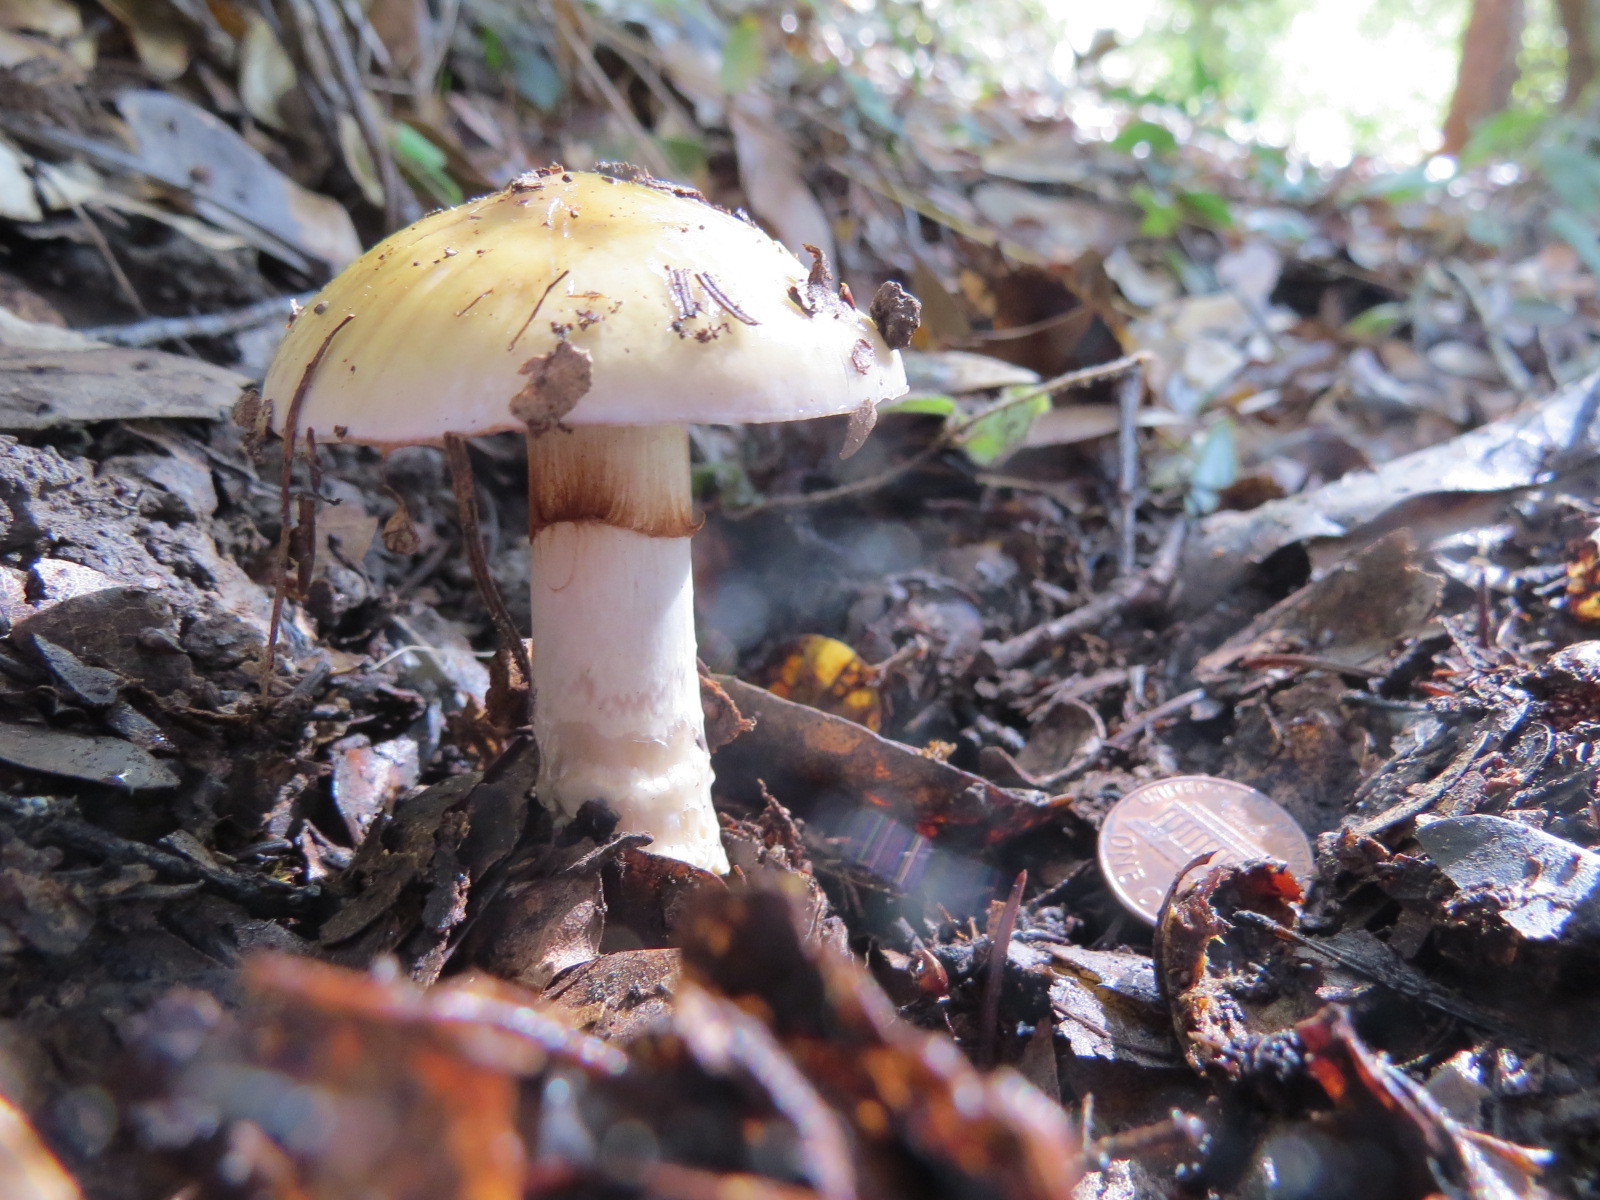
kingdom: Fungi
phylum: Basidiomycota
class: Agaricomycetes
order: Agaricales
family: Cortinariaceae
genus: Cortinarius
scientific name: Cortinarius glutinosoarmillatus
